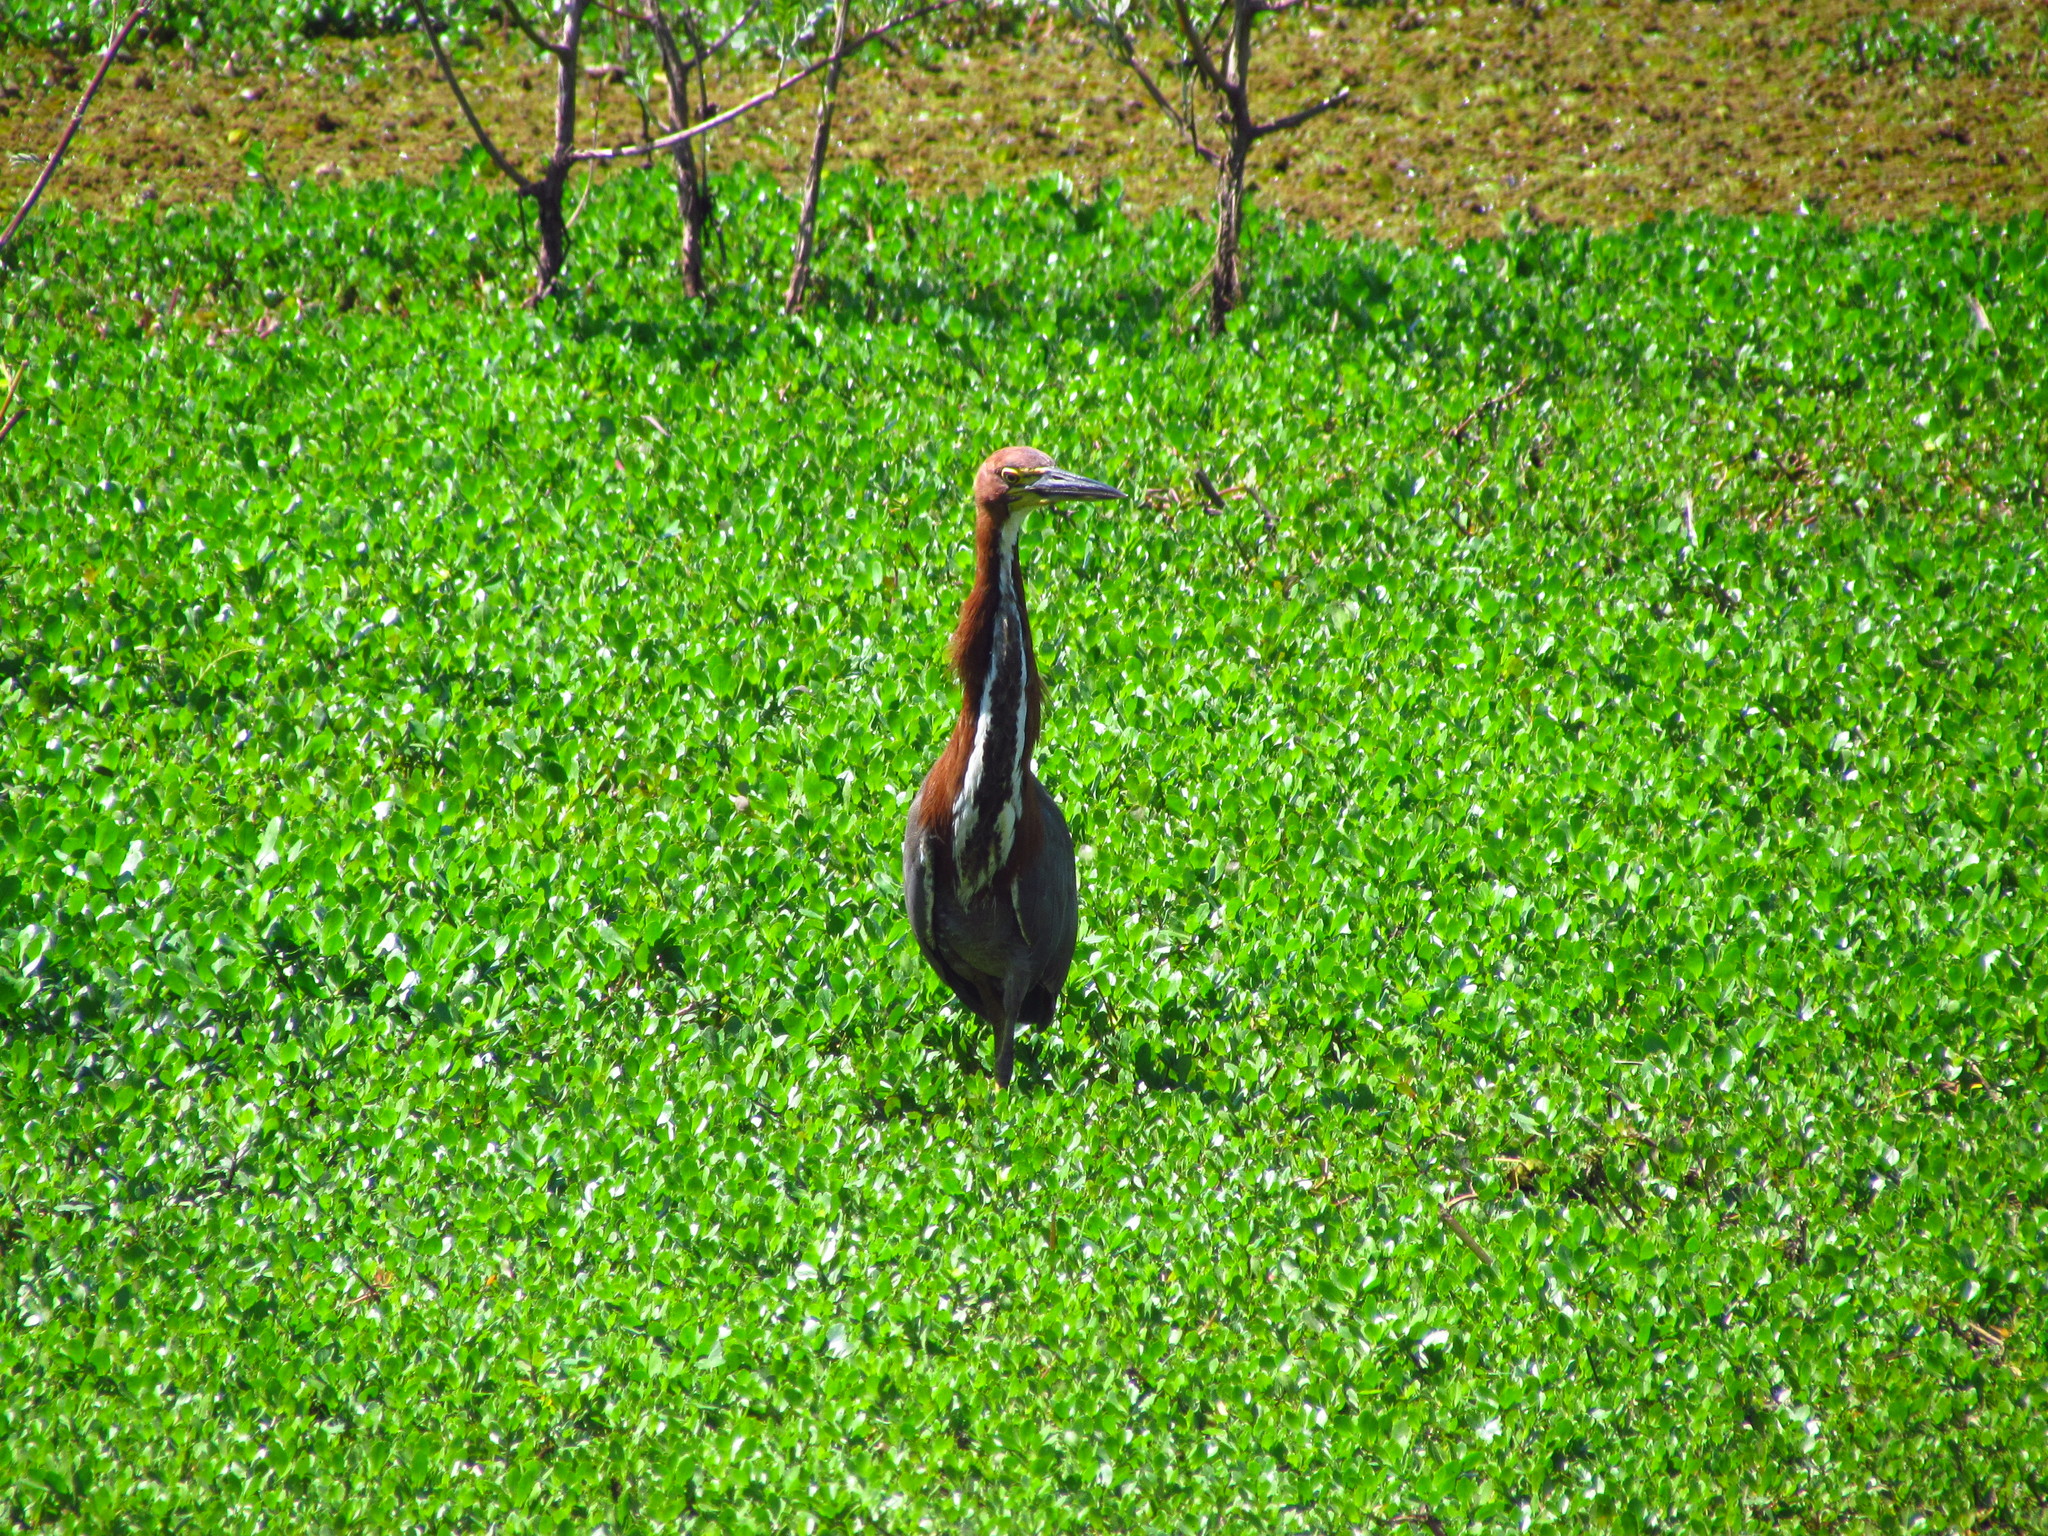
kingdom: Animalia
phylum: Chordata
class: Aves
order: Pelecaniformes
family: Ardeidae
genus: Tigrisoma
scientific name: Tigrisoma lineatum
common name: Rufescent tiger-heron
